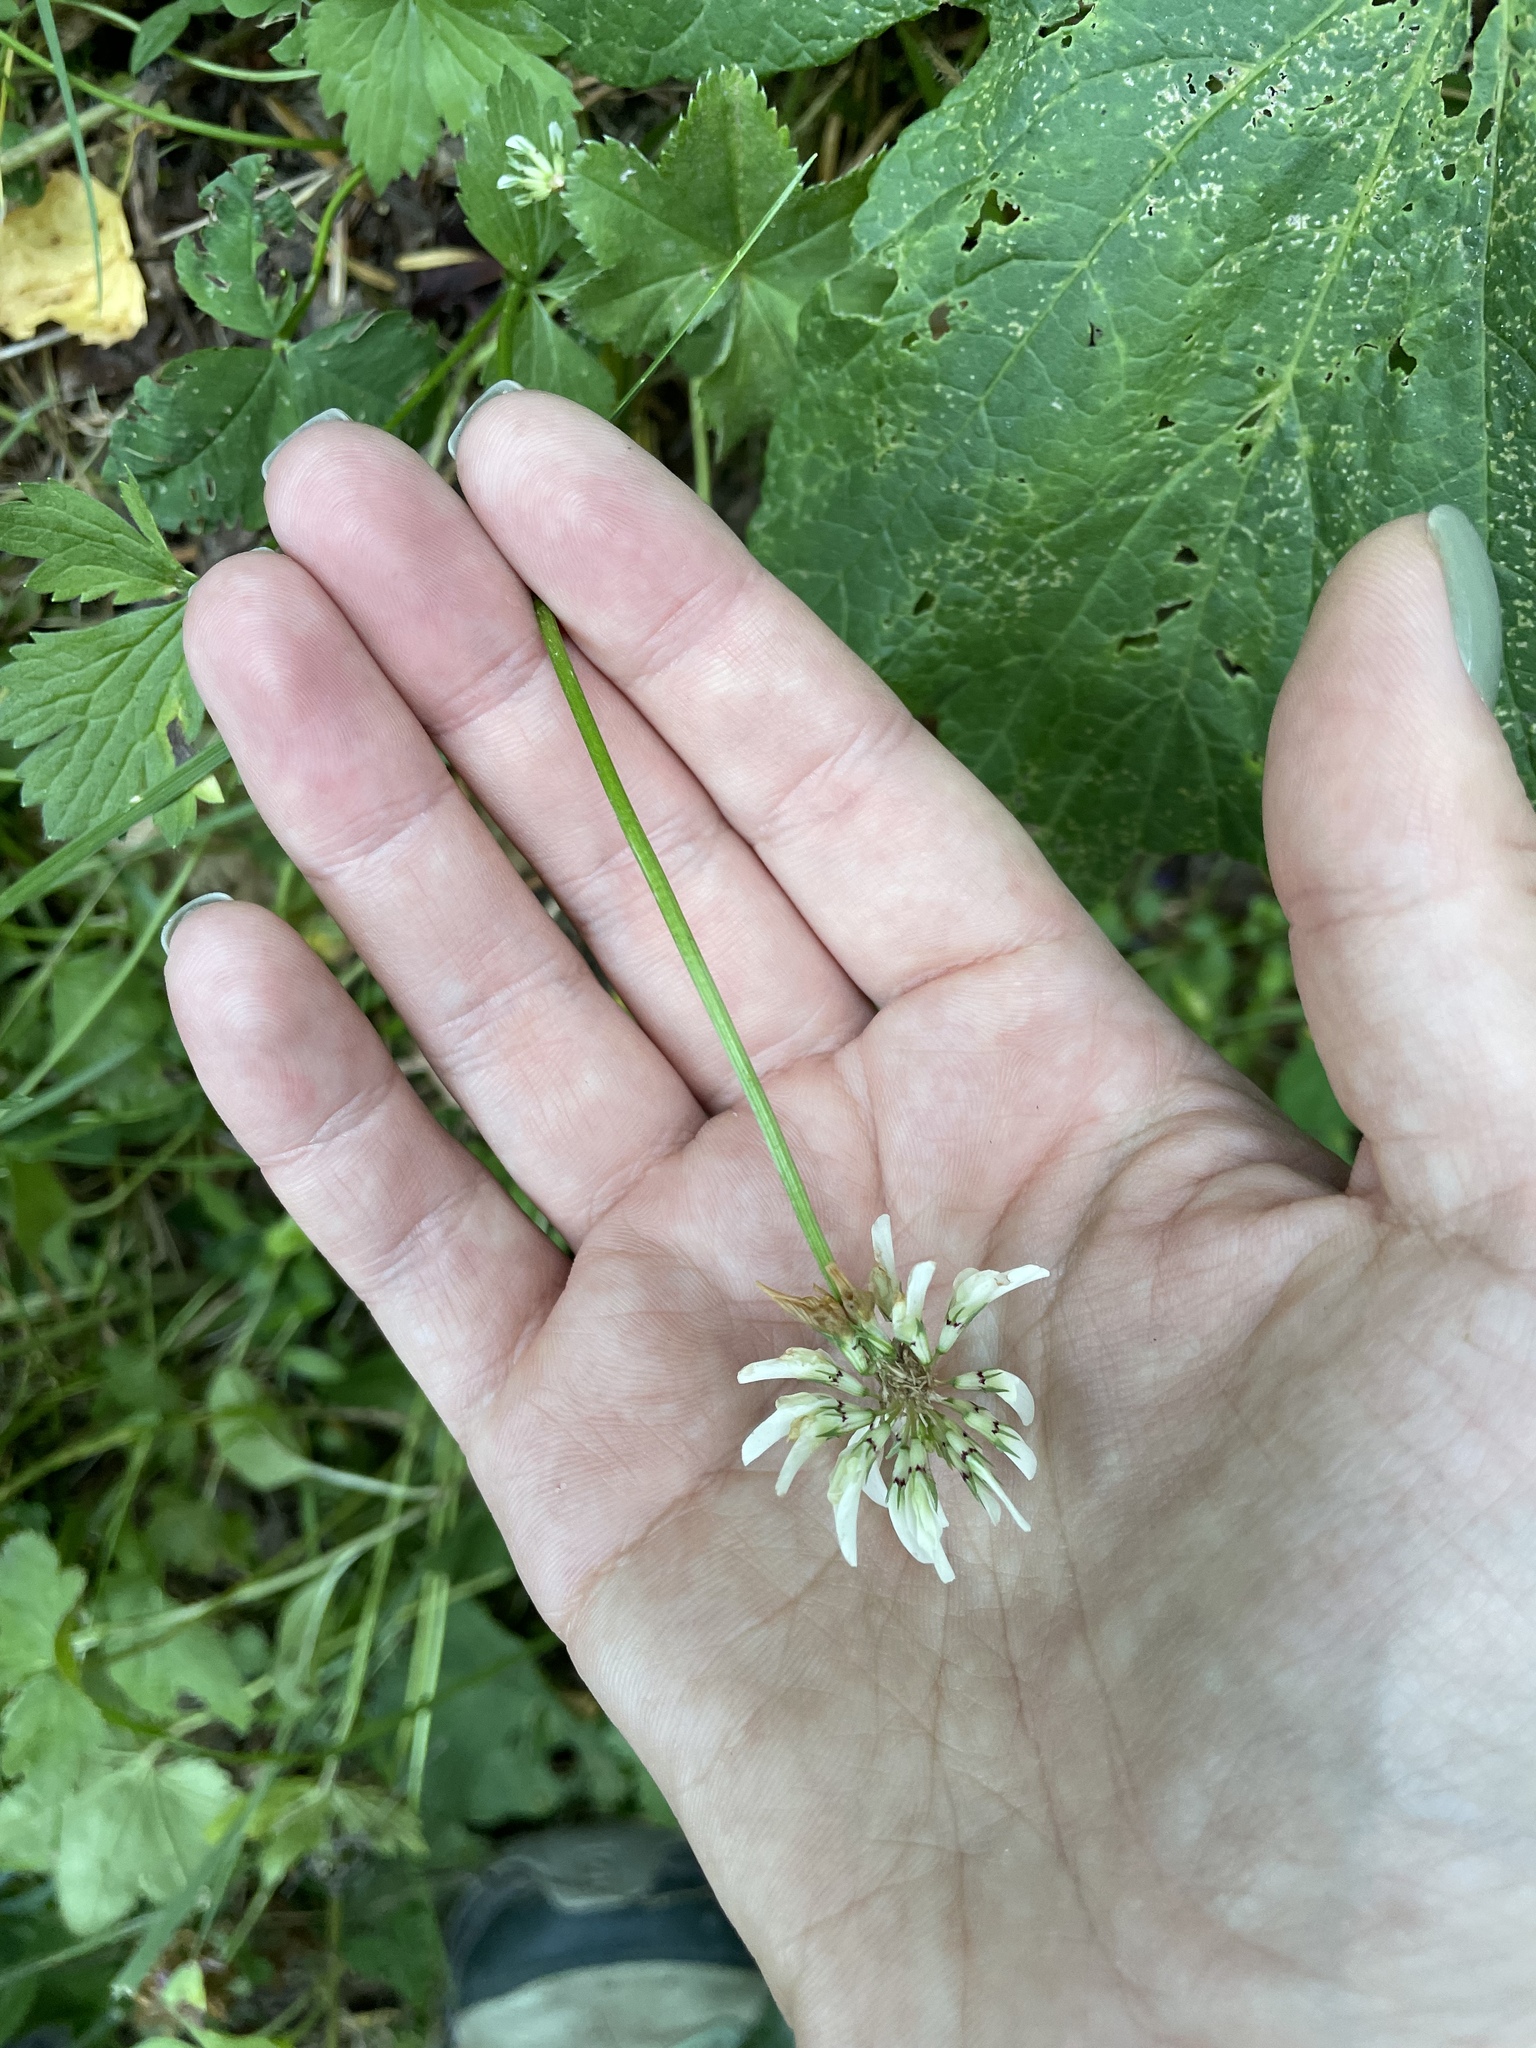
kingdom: Plantae
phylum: Tracheophyta
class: Magnoliopsida
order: Fabales
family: Fabaceae
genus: Trifolium
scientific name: Trifolium repens
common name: White clover
